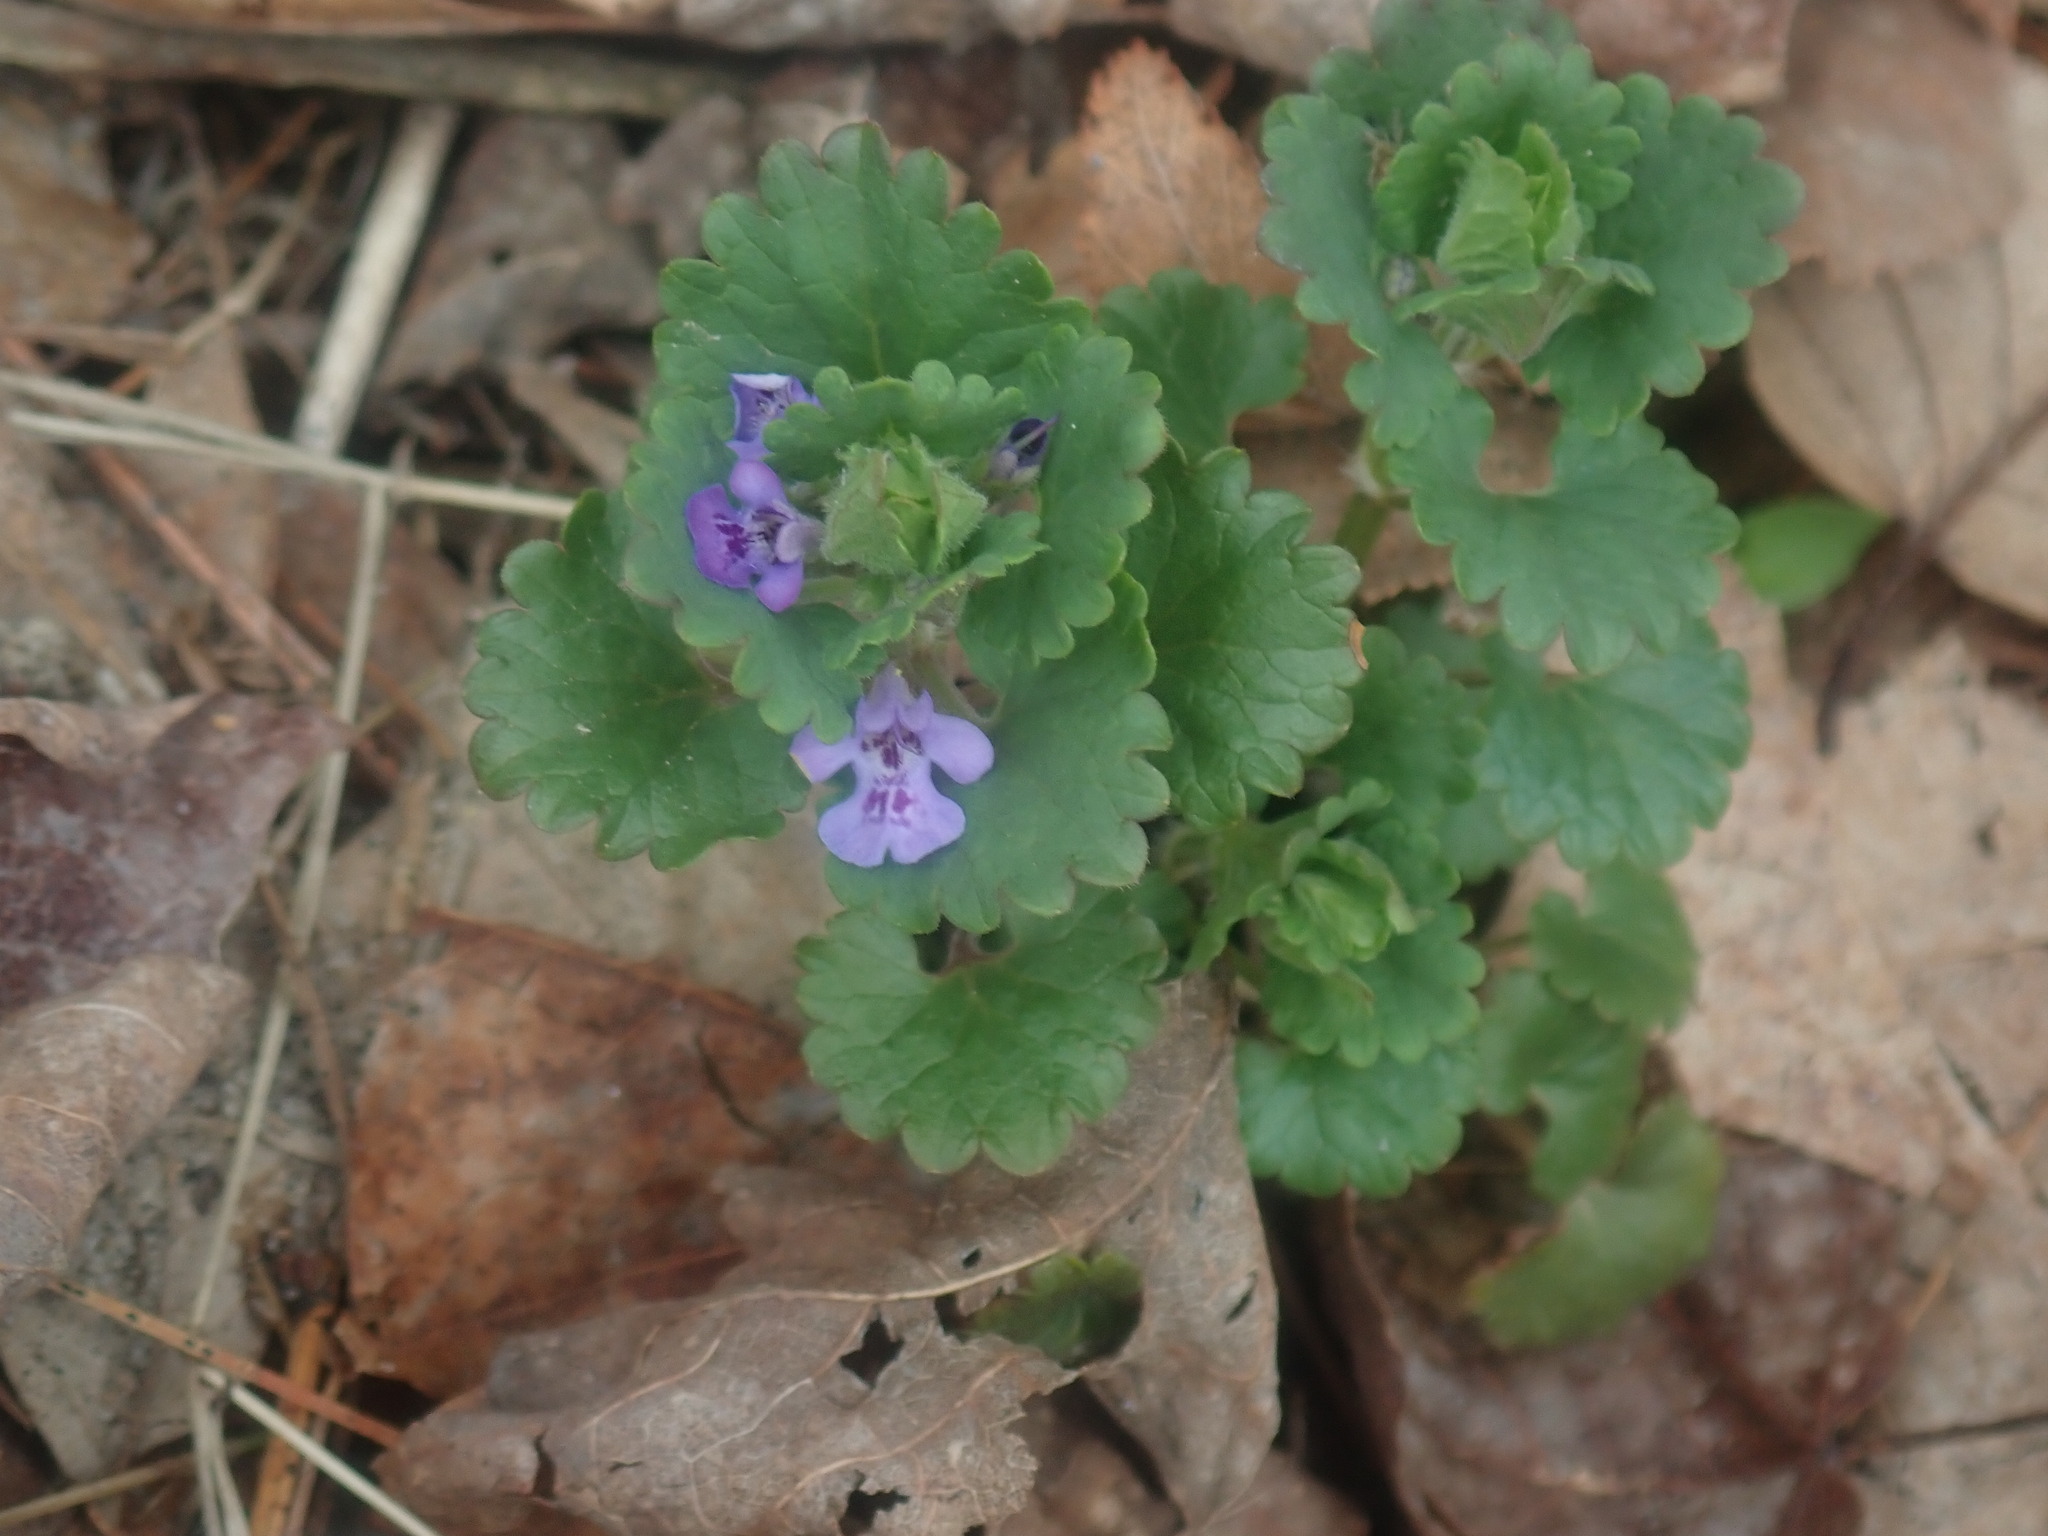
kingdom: Plantae
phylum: Tracheophyta
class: Magnoliopsida
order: Lamiales
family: Lamiaceae
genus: Glechoma
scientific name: Glechoma hederacea
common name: Ground ivy
